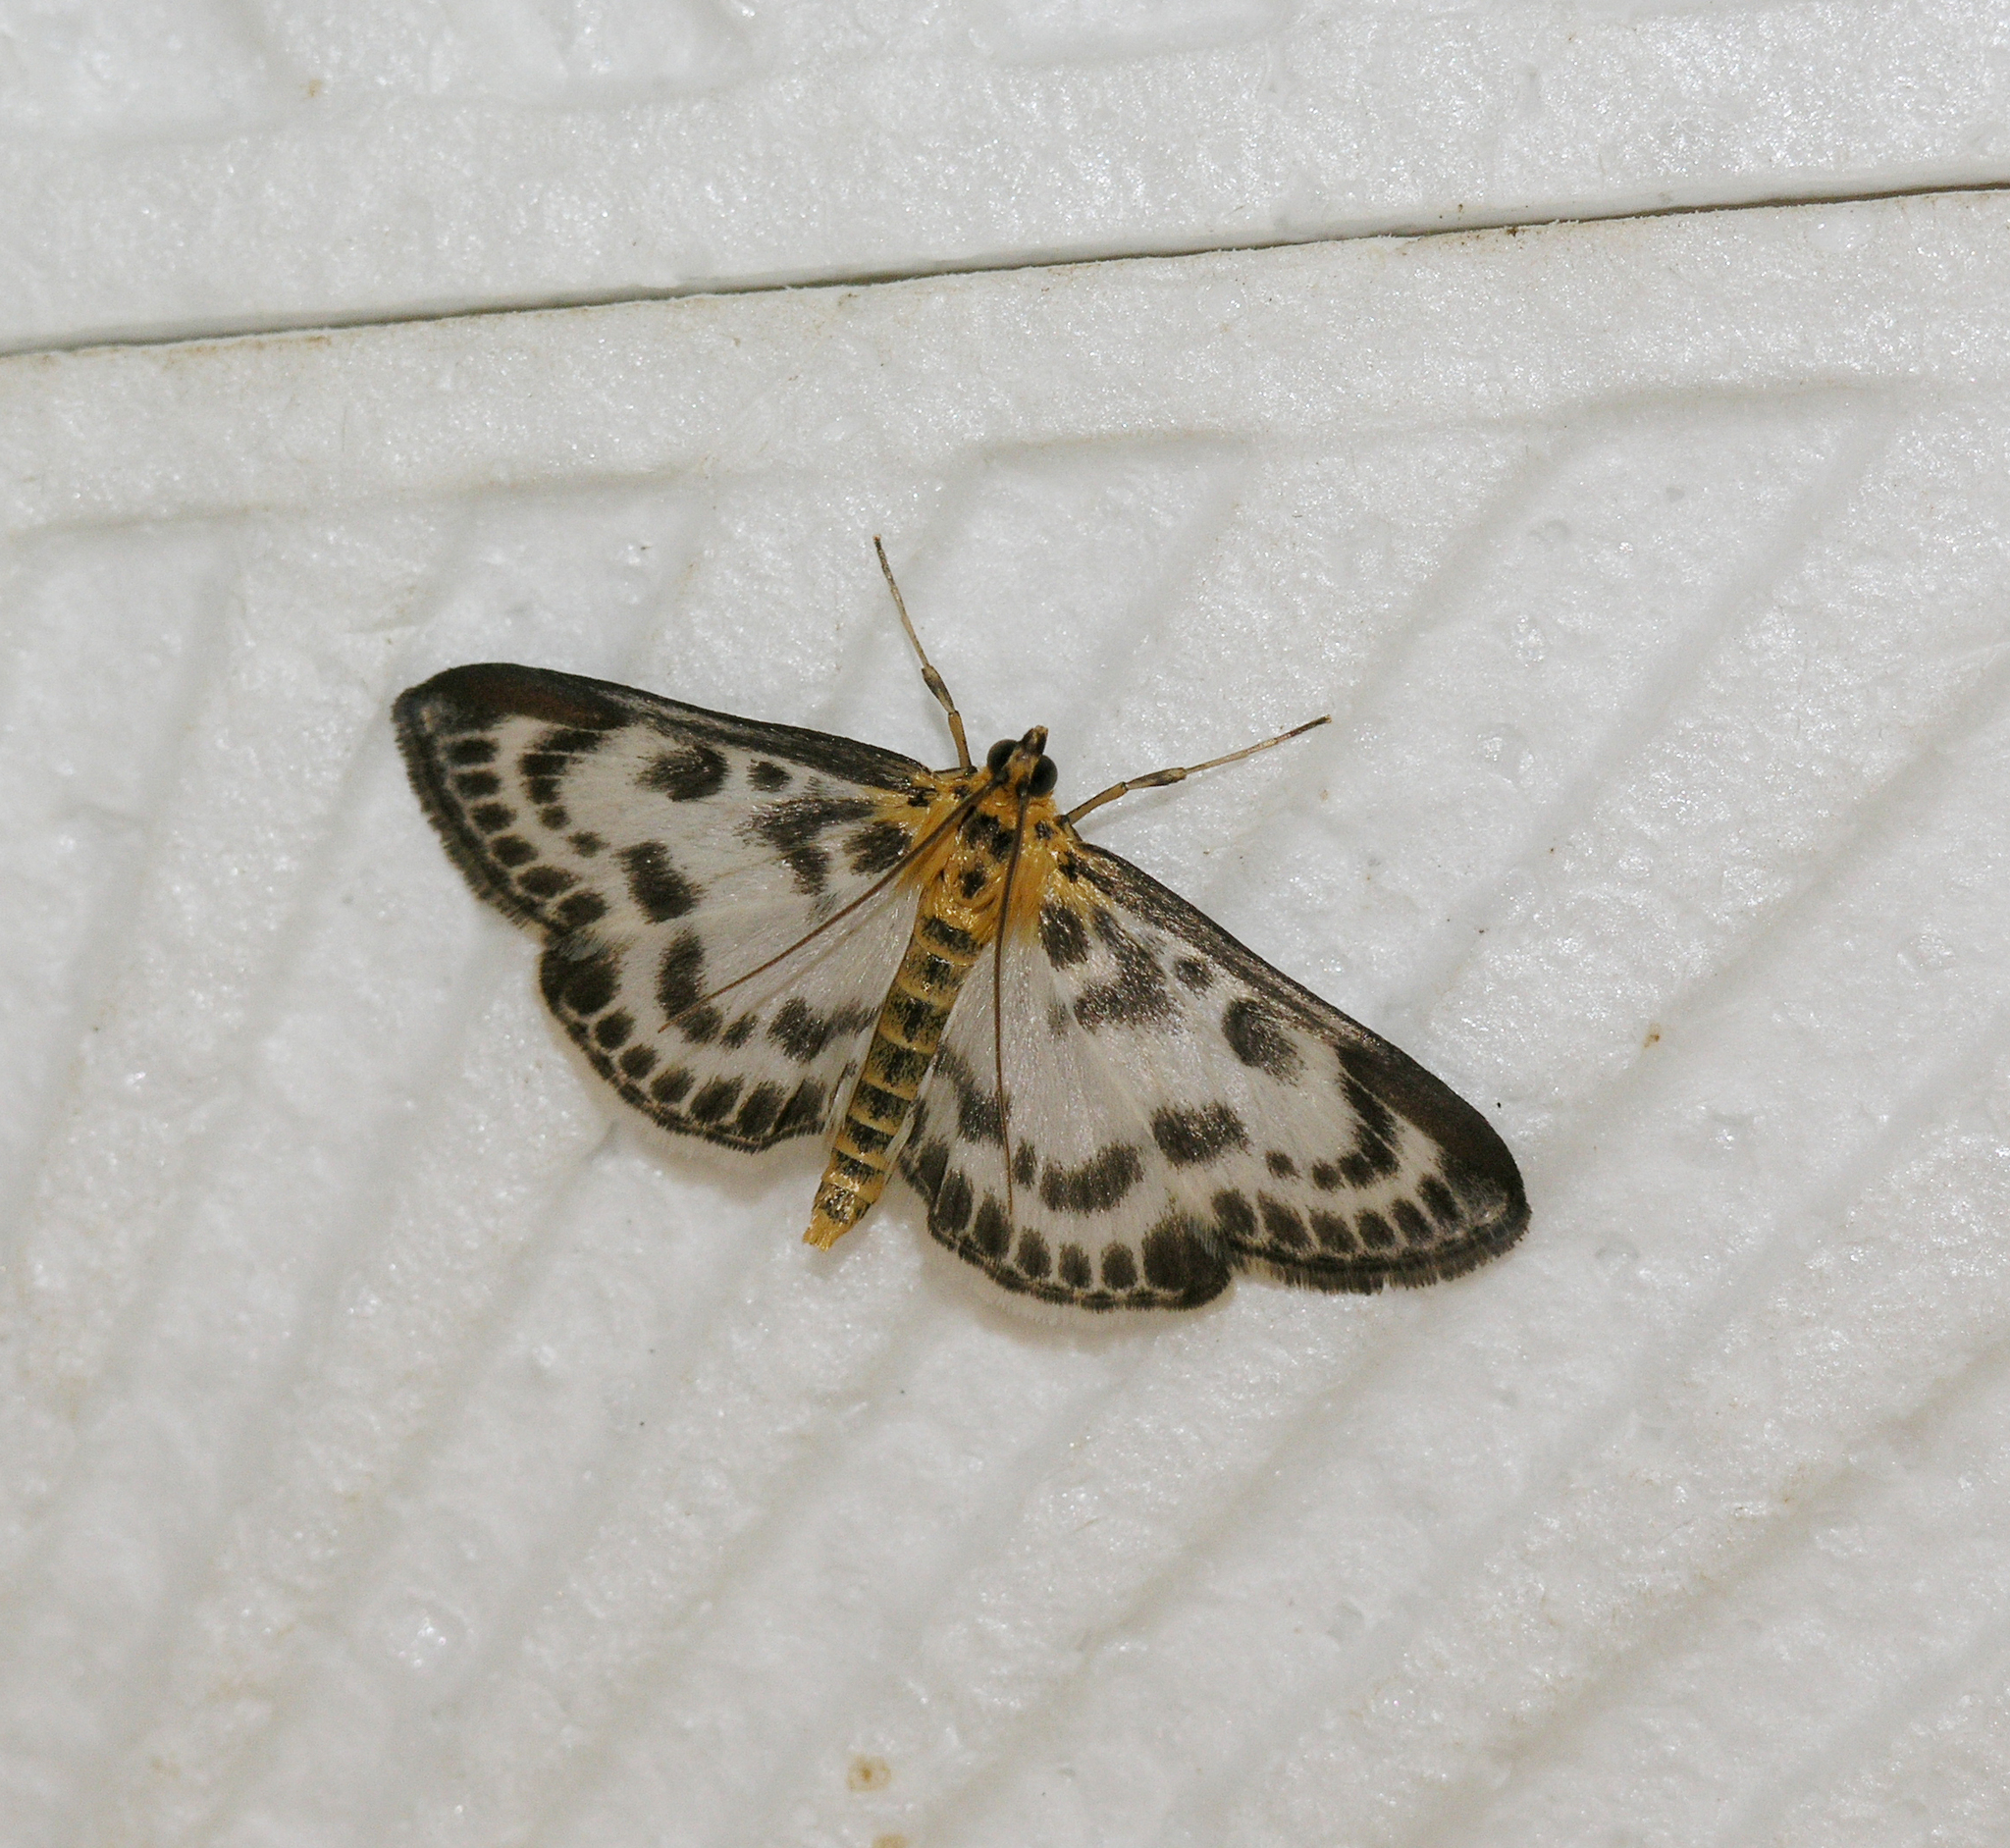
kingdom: Animalia
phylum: Arthropoda
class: Insecta
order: Lepidoptera
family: Crambidae
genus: Anania
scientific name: Anania hortulata
